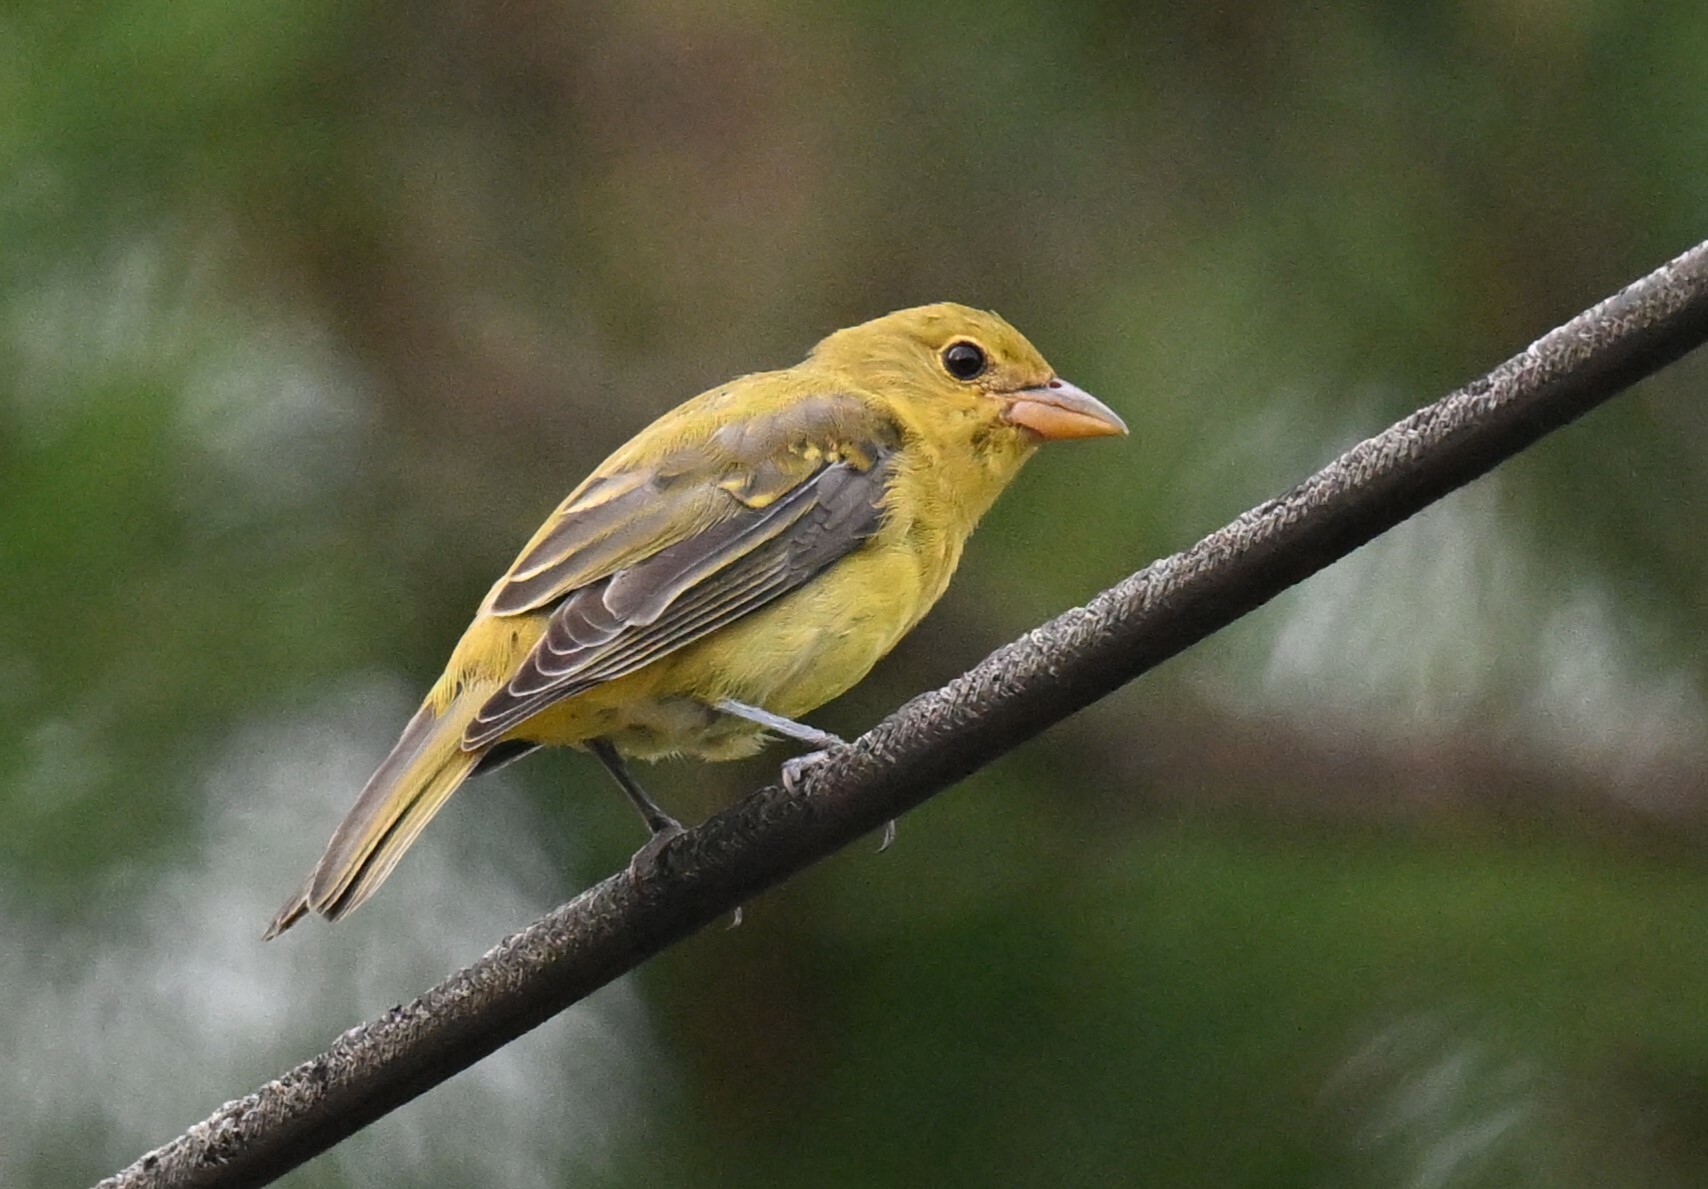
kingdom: Animalia
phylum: Chordata
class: Aves
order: Passeriformes
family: Cardinalidae
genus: Piranga
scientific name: Piranga olivacea
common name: Scarlet tanager
